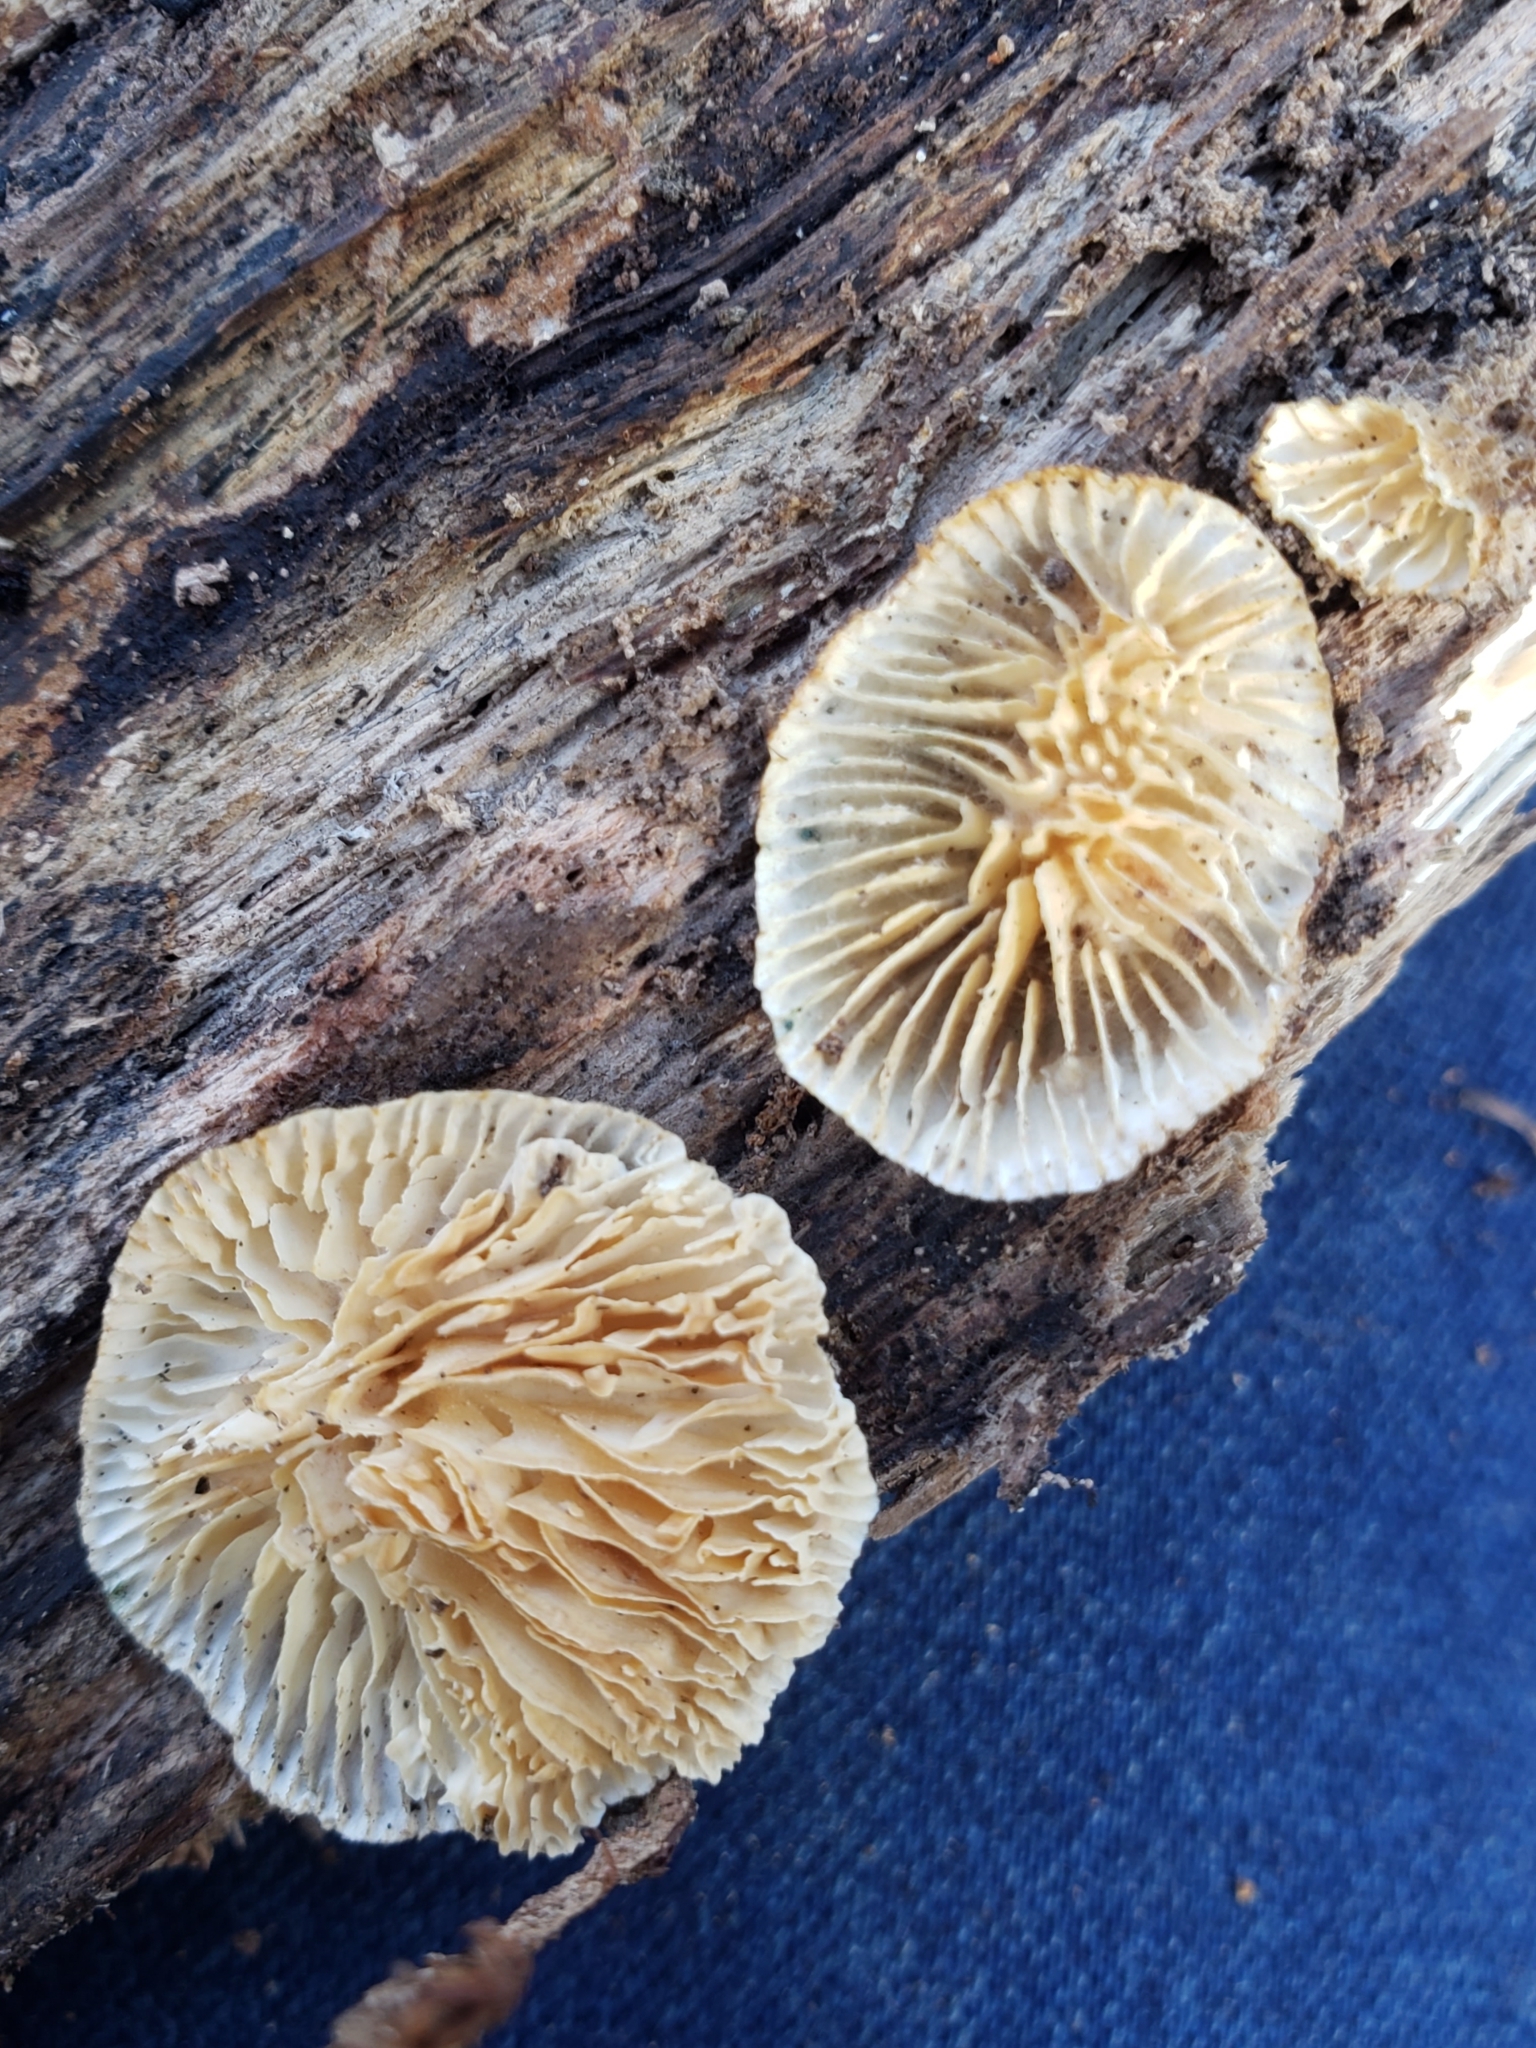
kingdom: Fungi
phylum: Basidiomycota
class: Agaricomycetes
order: Polyporales
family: Polyporaceae
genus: Lenzites
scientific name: Lenzites betulinus
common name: Birch mazegill
